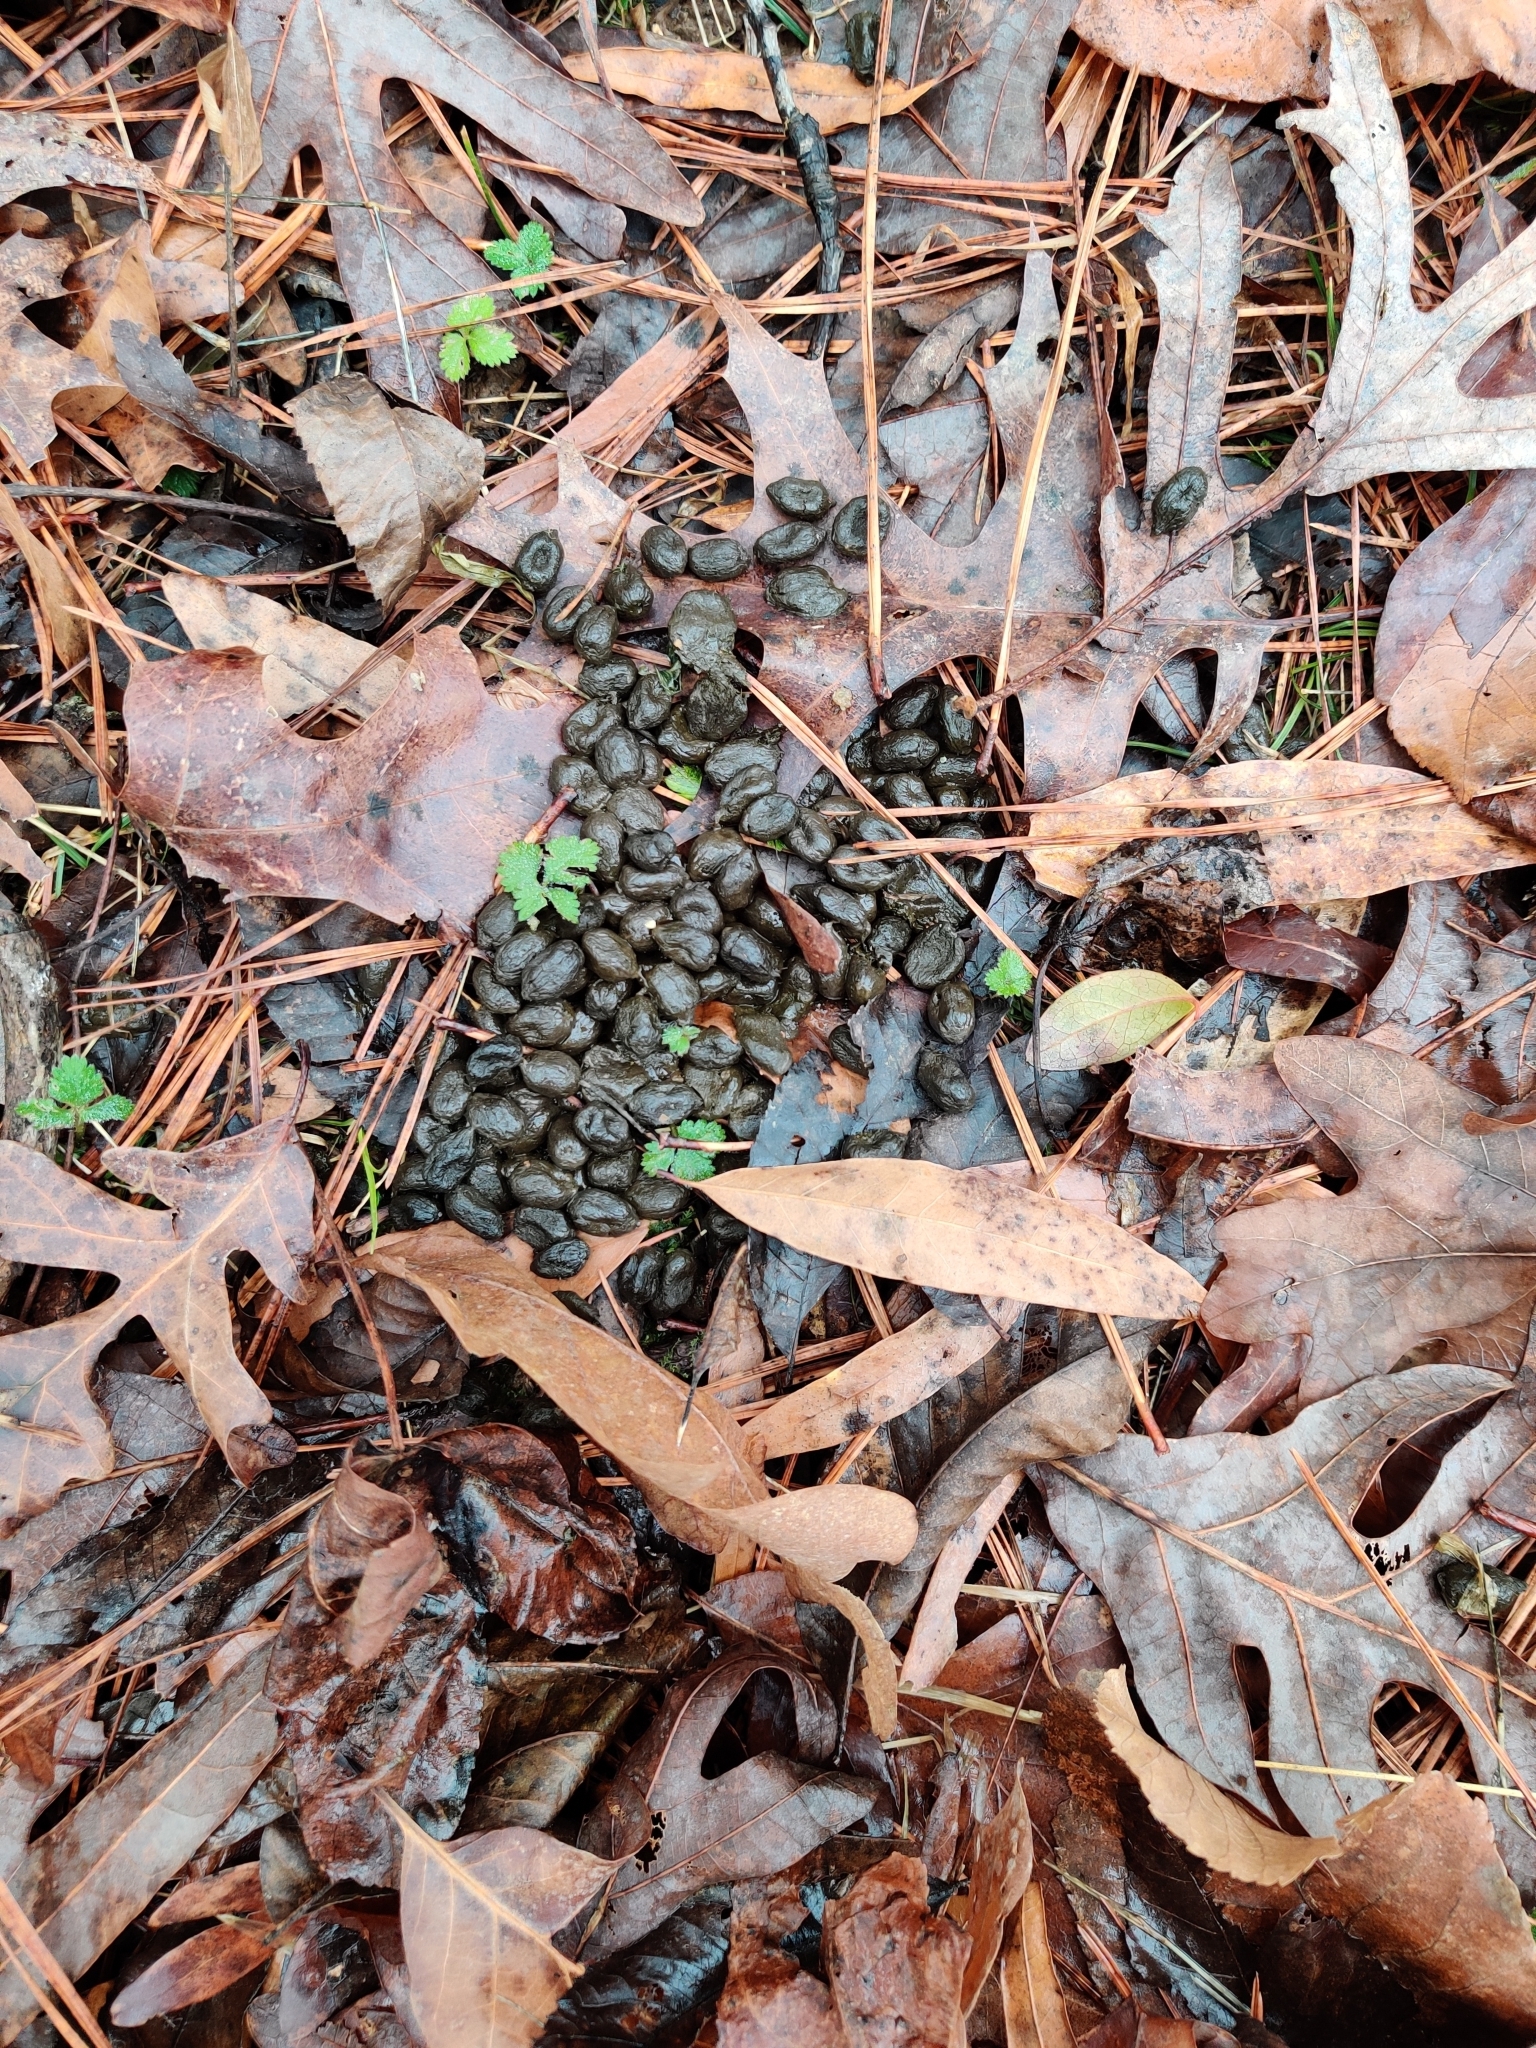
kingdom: Animalia
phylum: Chordata
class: Mammalia
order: Artiodactyla
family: Cervidae
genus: Odocoileus
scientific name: Odocoileus virginianus
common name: White-tailed deer
